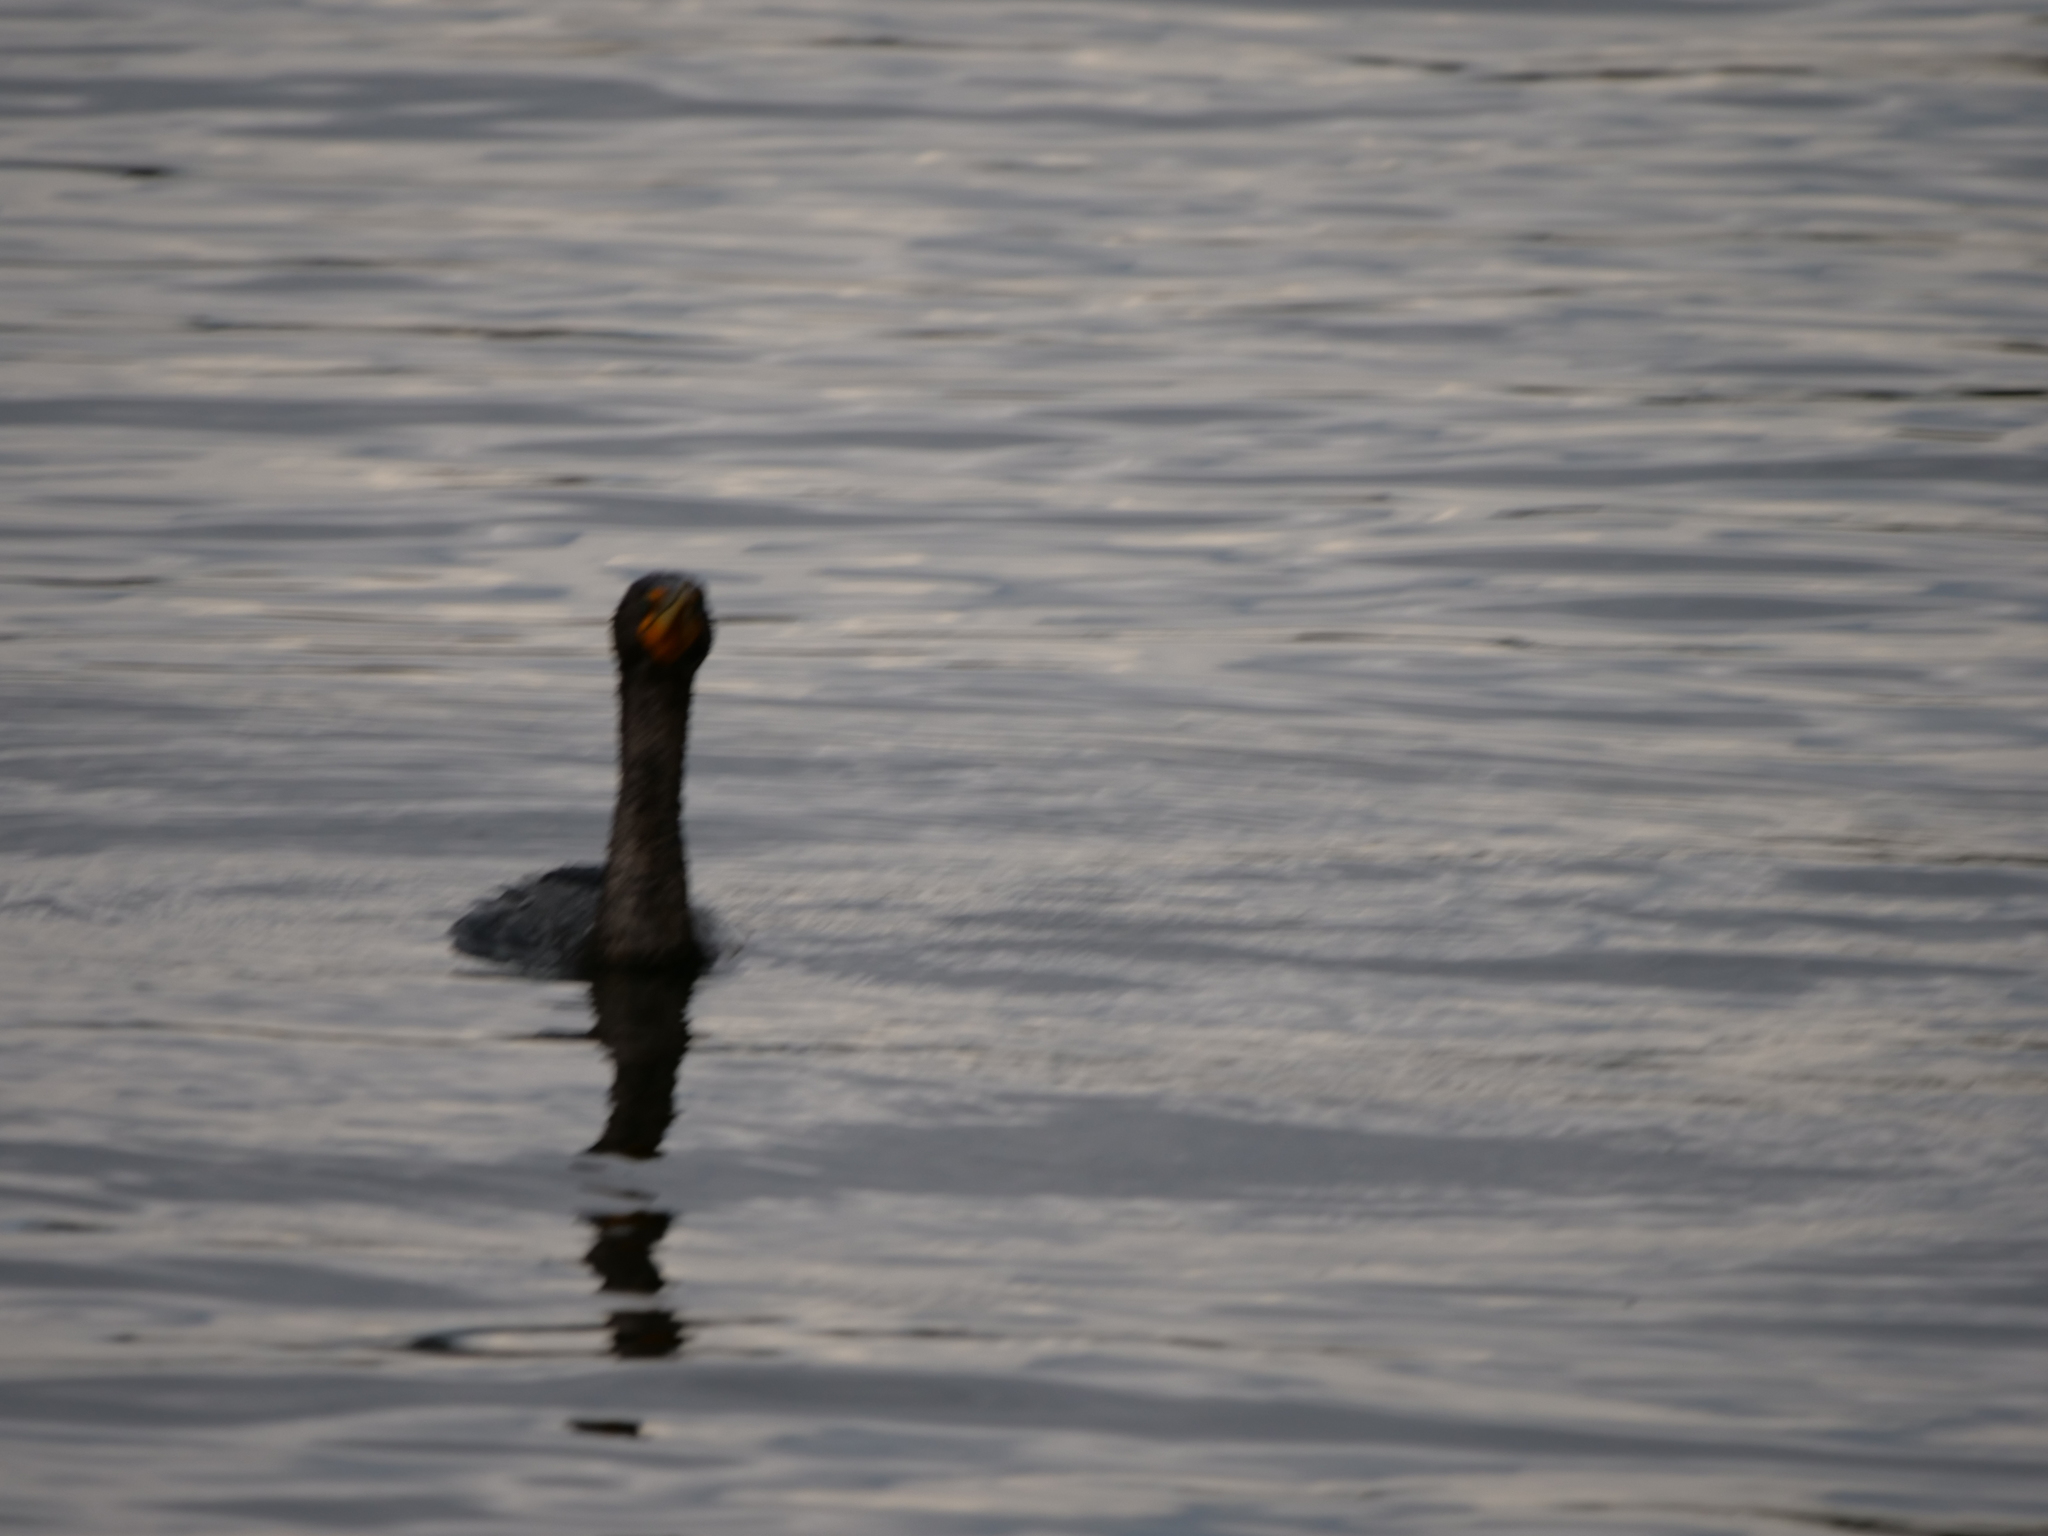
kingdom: Animalia
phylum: Chordata
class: Aves
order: Suliformes
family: Phalacrocoracidae
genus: Phalacrocorax
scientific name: Phalacrocorax auritus
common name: Double-crested cormorant
